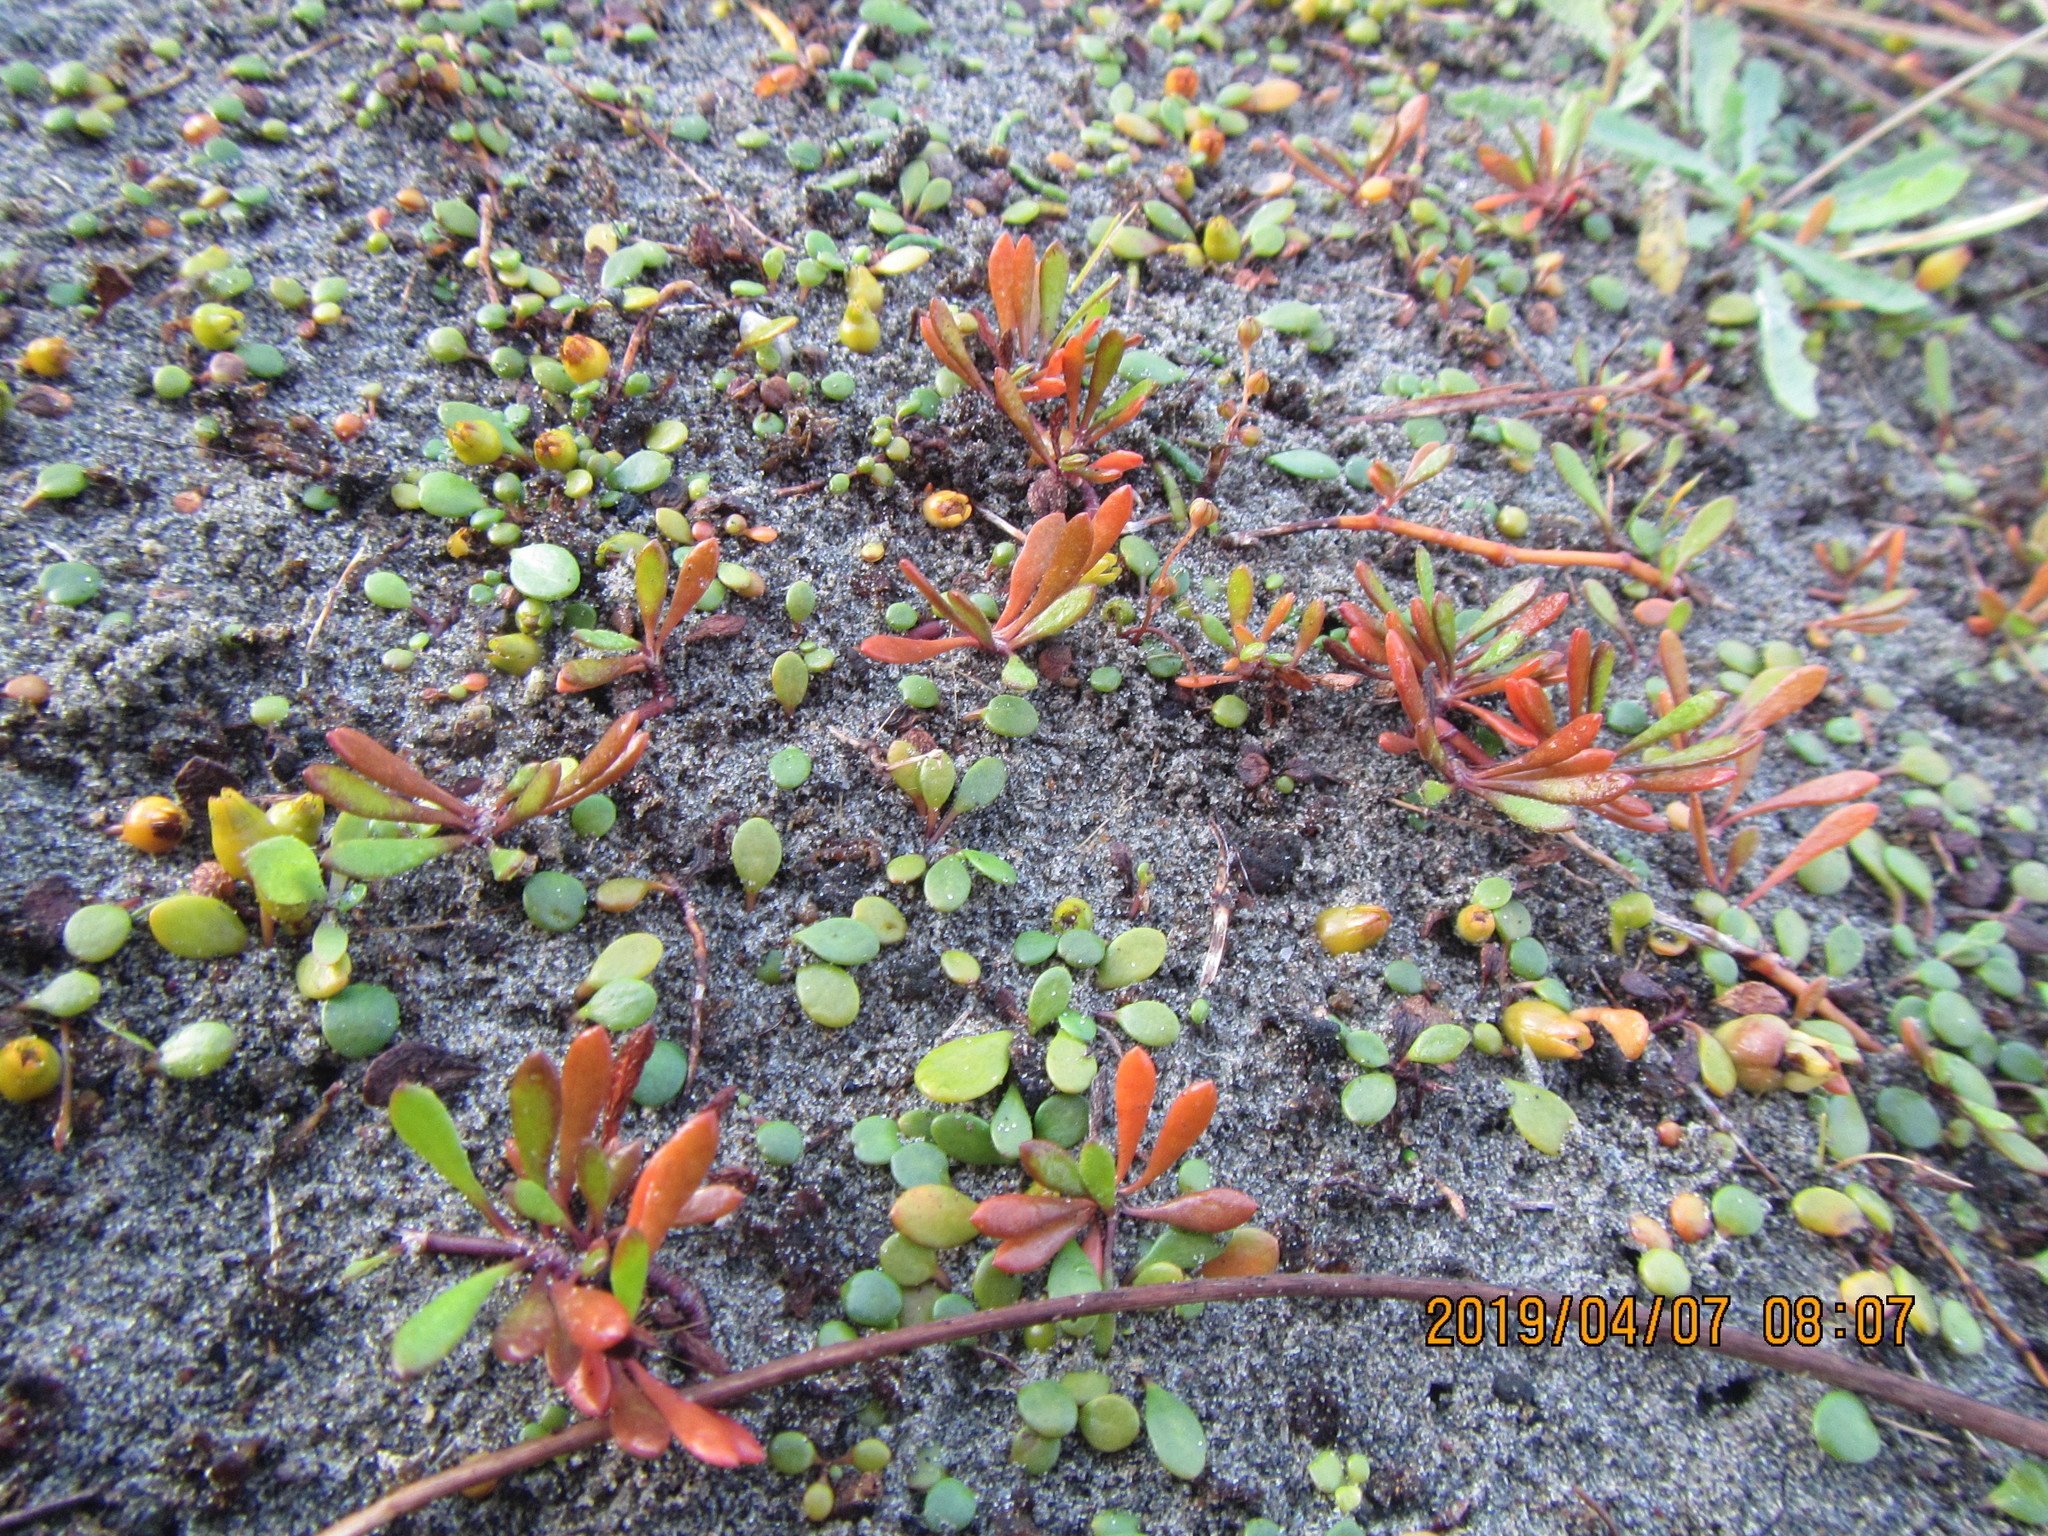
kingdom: Plantae
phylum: Tracheophyta
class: Magnoliopsida
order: Asterales
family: Goodeniaceae
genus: Goodenia
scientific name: Goodenia radicans
